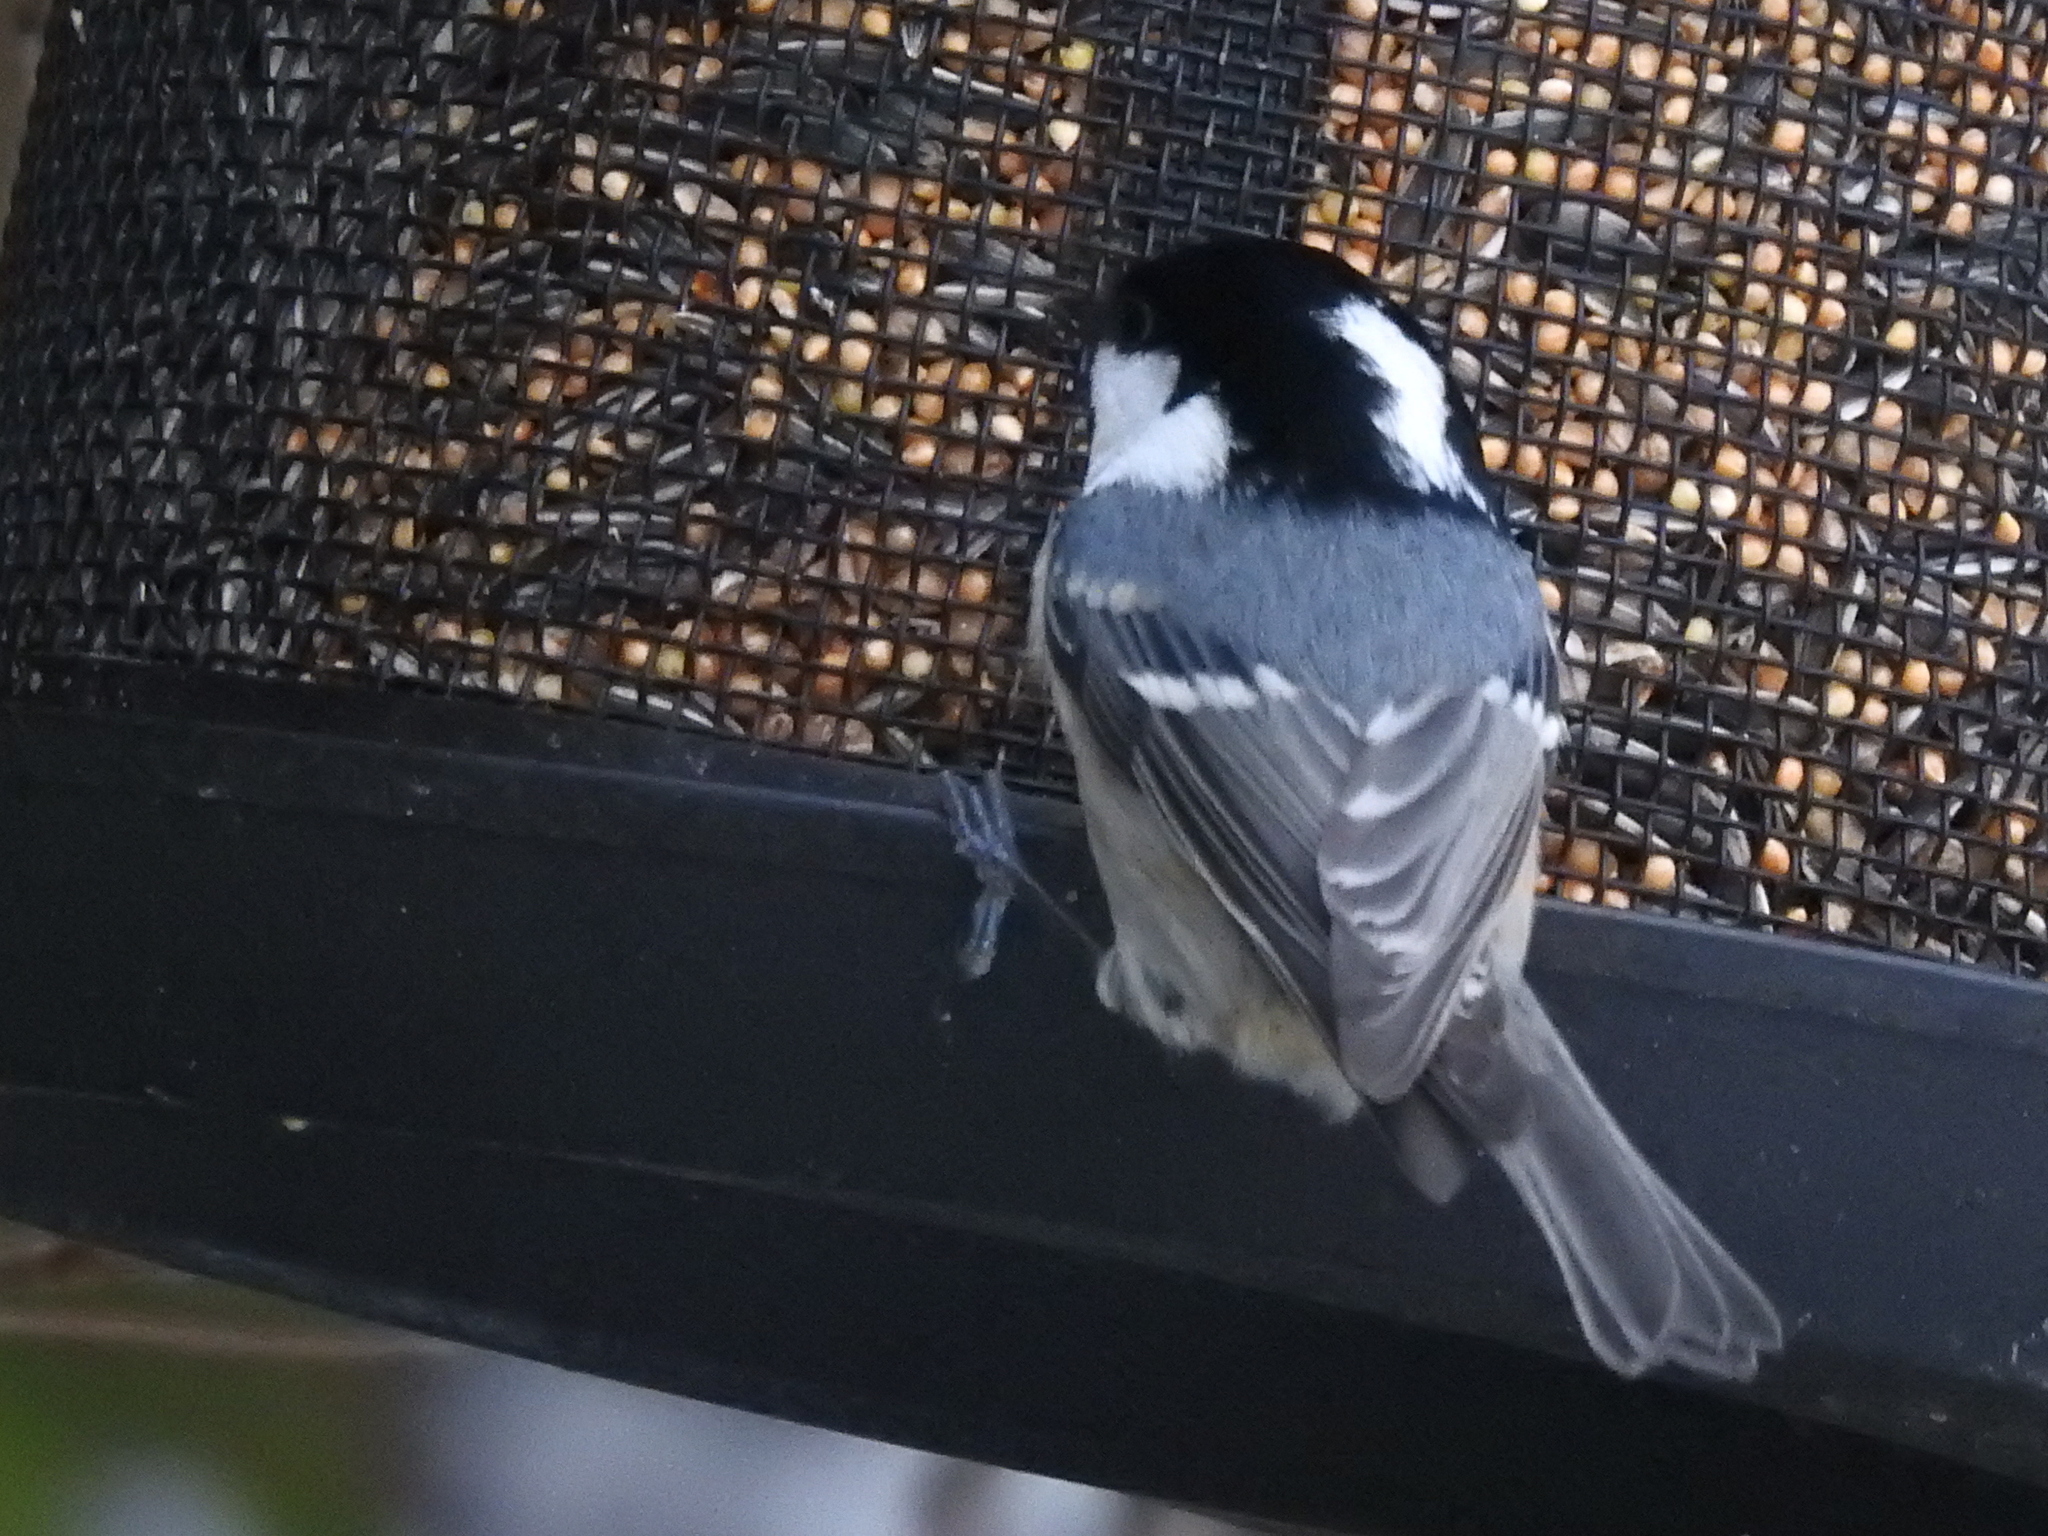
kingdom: Animalia
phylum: Chordata
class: Aves
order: Passeriformes
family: Paridae
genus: Periparus
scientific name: Periparus ater
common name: Coal tit
